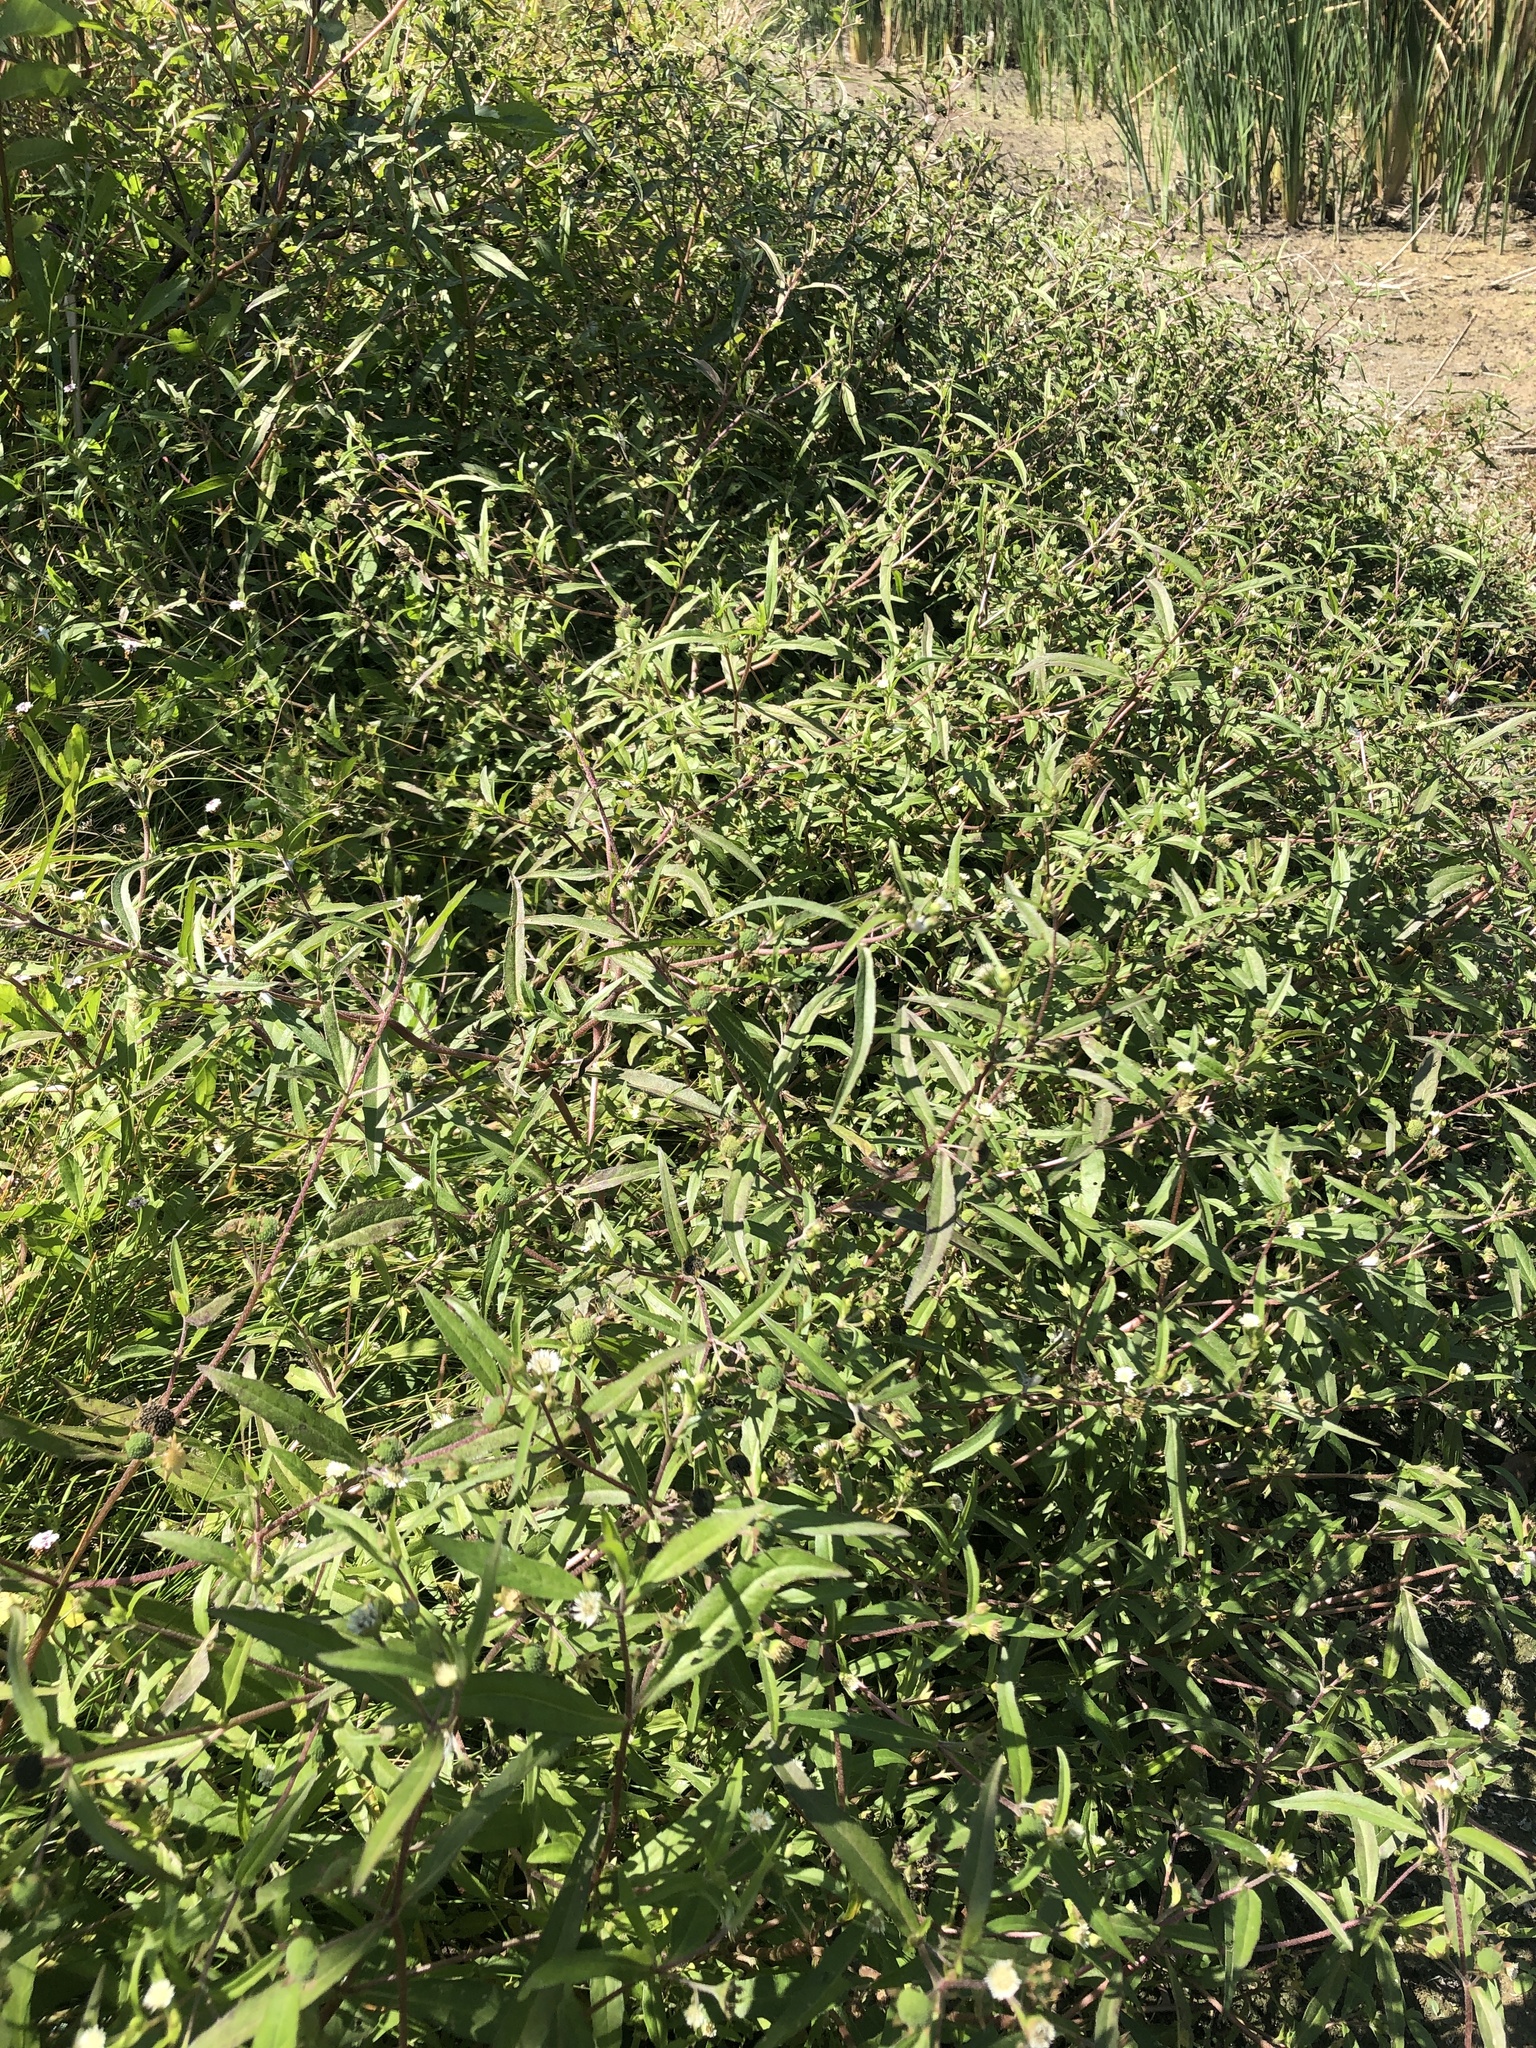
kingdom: Plantae
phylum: Tracheophyta
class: Magnoliopsida
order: Asterales
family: Asteraceae
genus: Eclipta
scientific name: Eclipta prostrata
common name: False daisy
